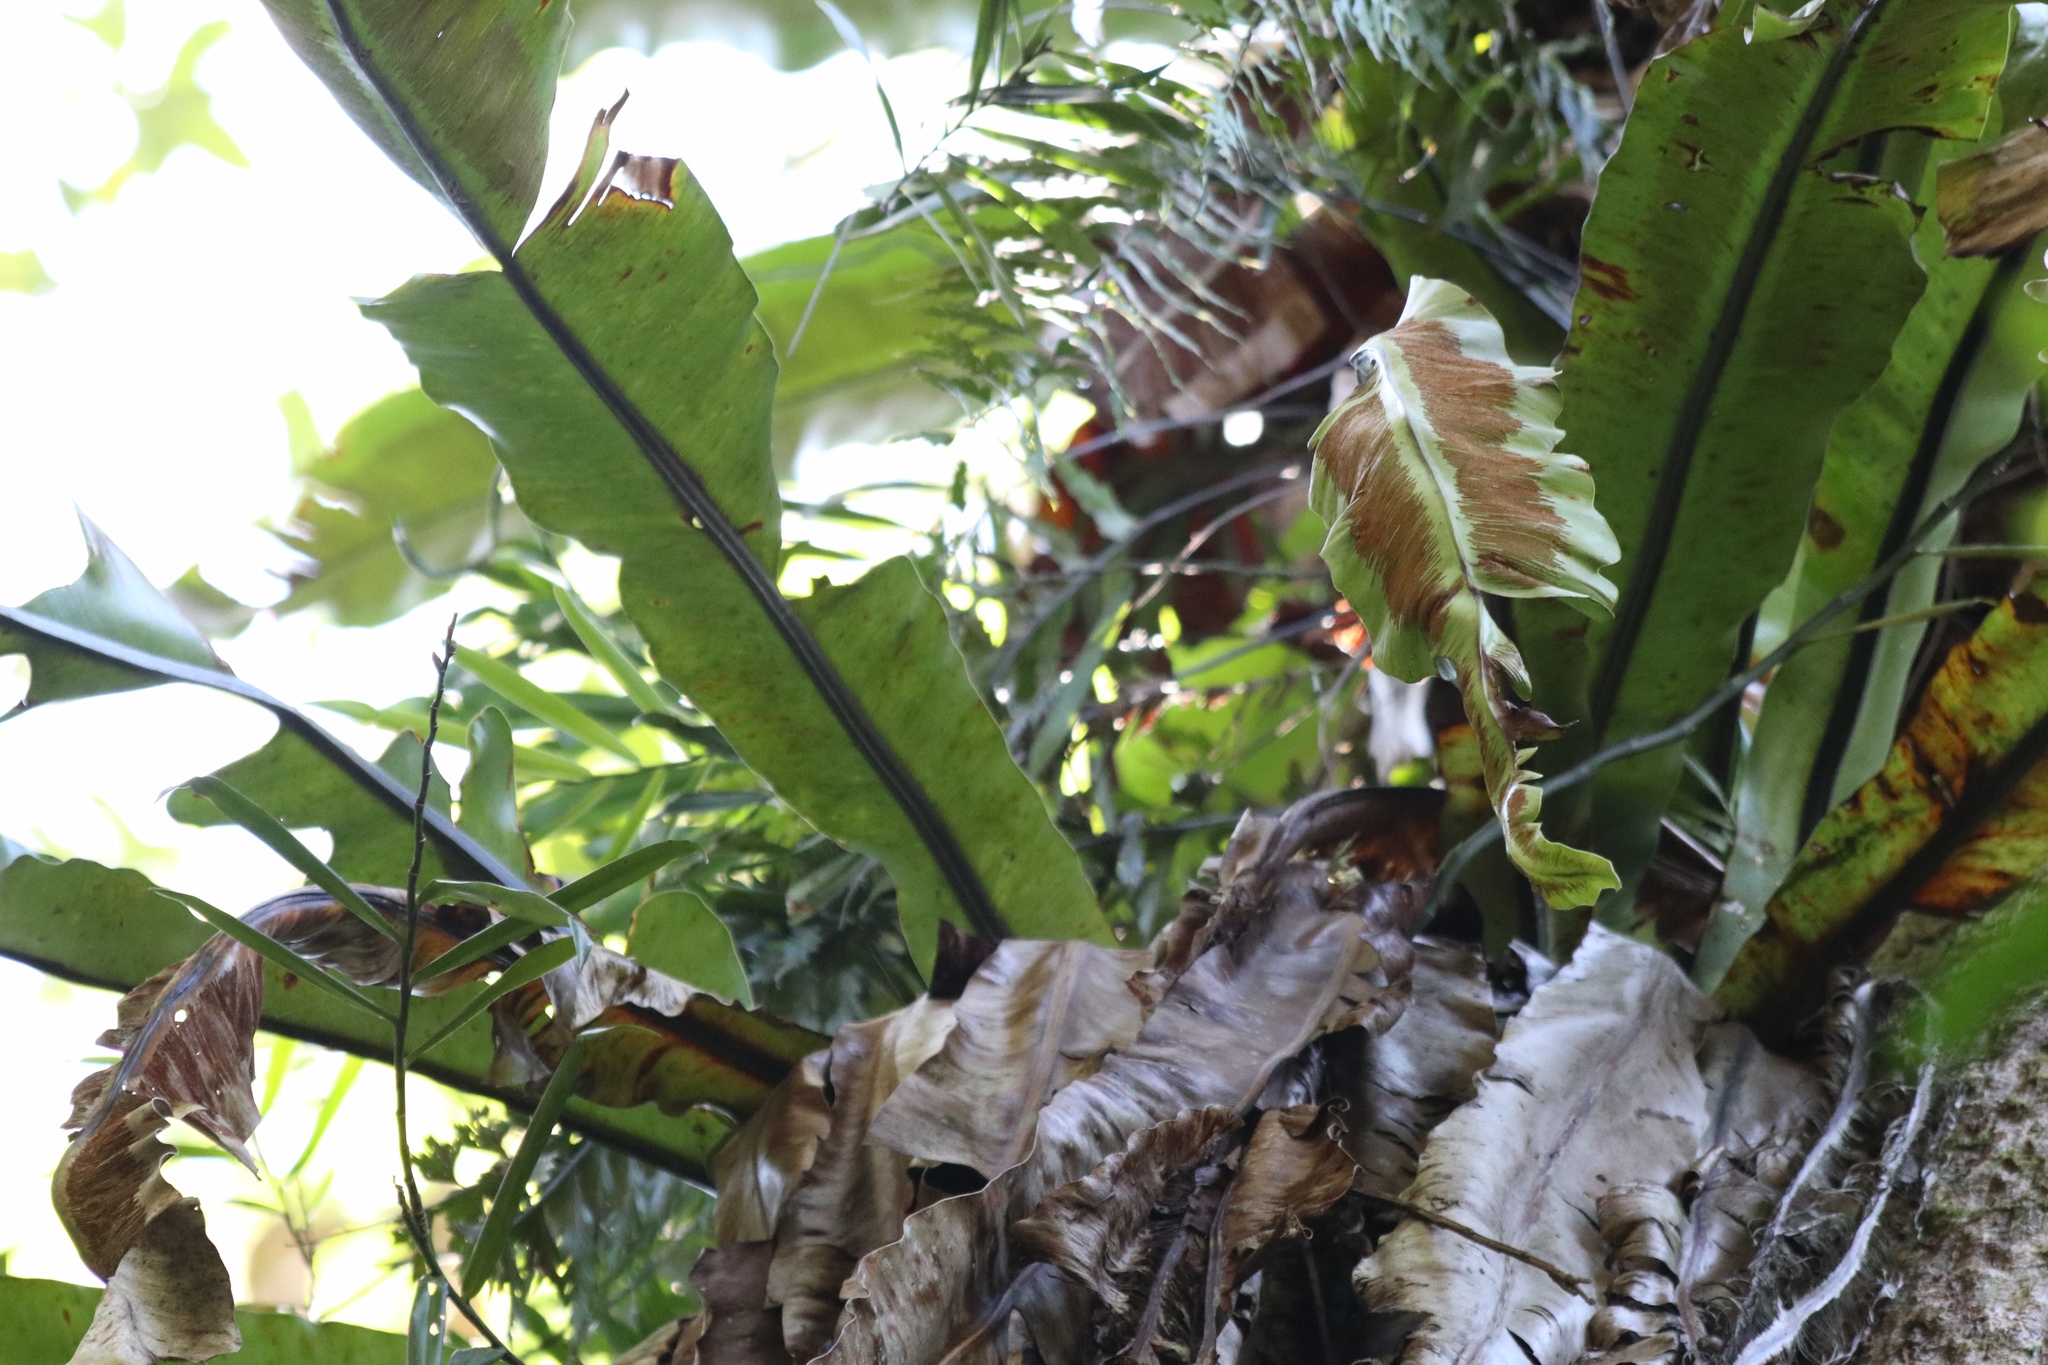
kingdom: Plantae
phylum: Tracheophyta
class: Polypodiopsida
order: Polypodiales
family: Aspleniaceae
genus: Asplenium
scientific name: Asplenium australasicum
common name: Bird's-nest fern
